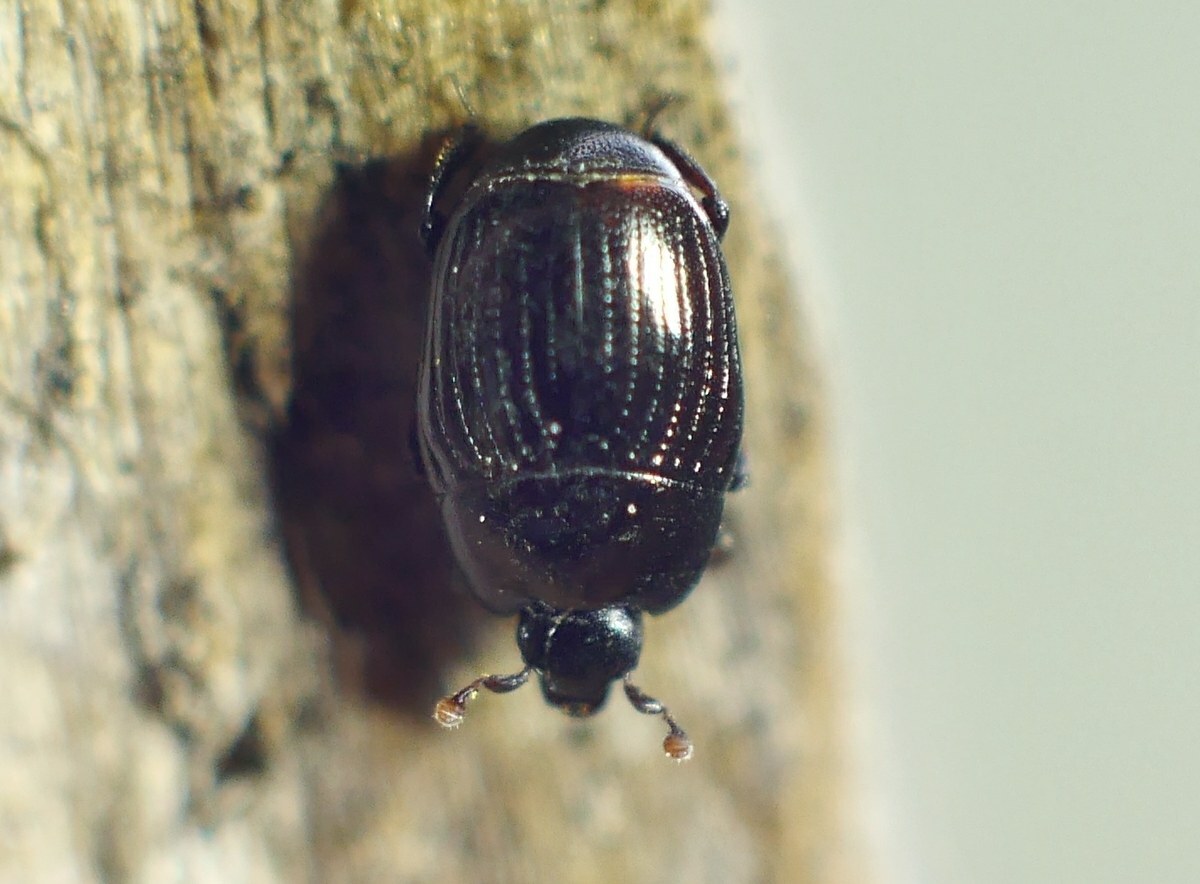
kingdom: Animalia
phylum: Arthropoda
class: Insecta
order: Coleoptera
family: Histeridae
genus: Carcinops
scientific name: Carcinops pumilio
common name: Clown beetle
